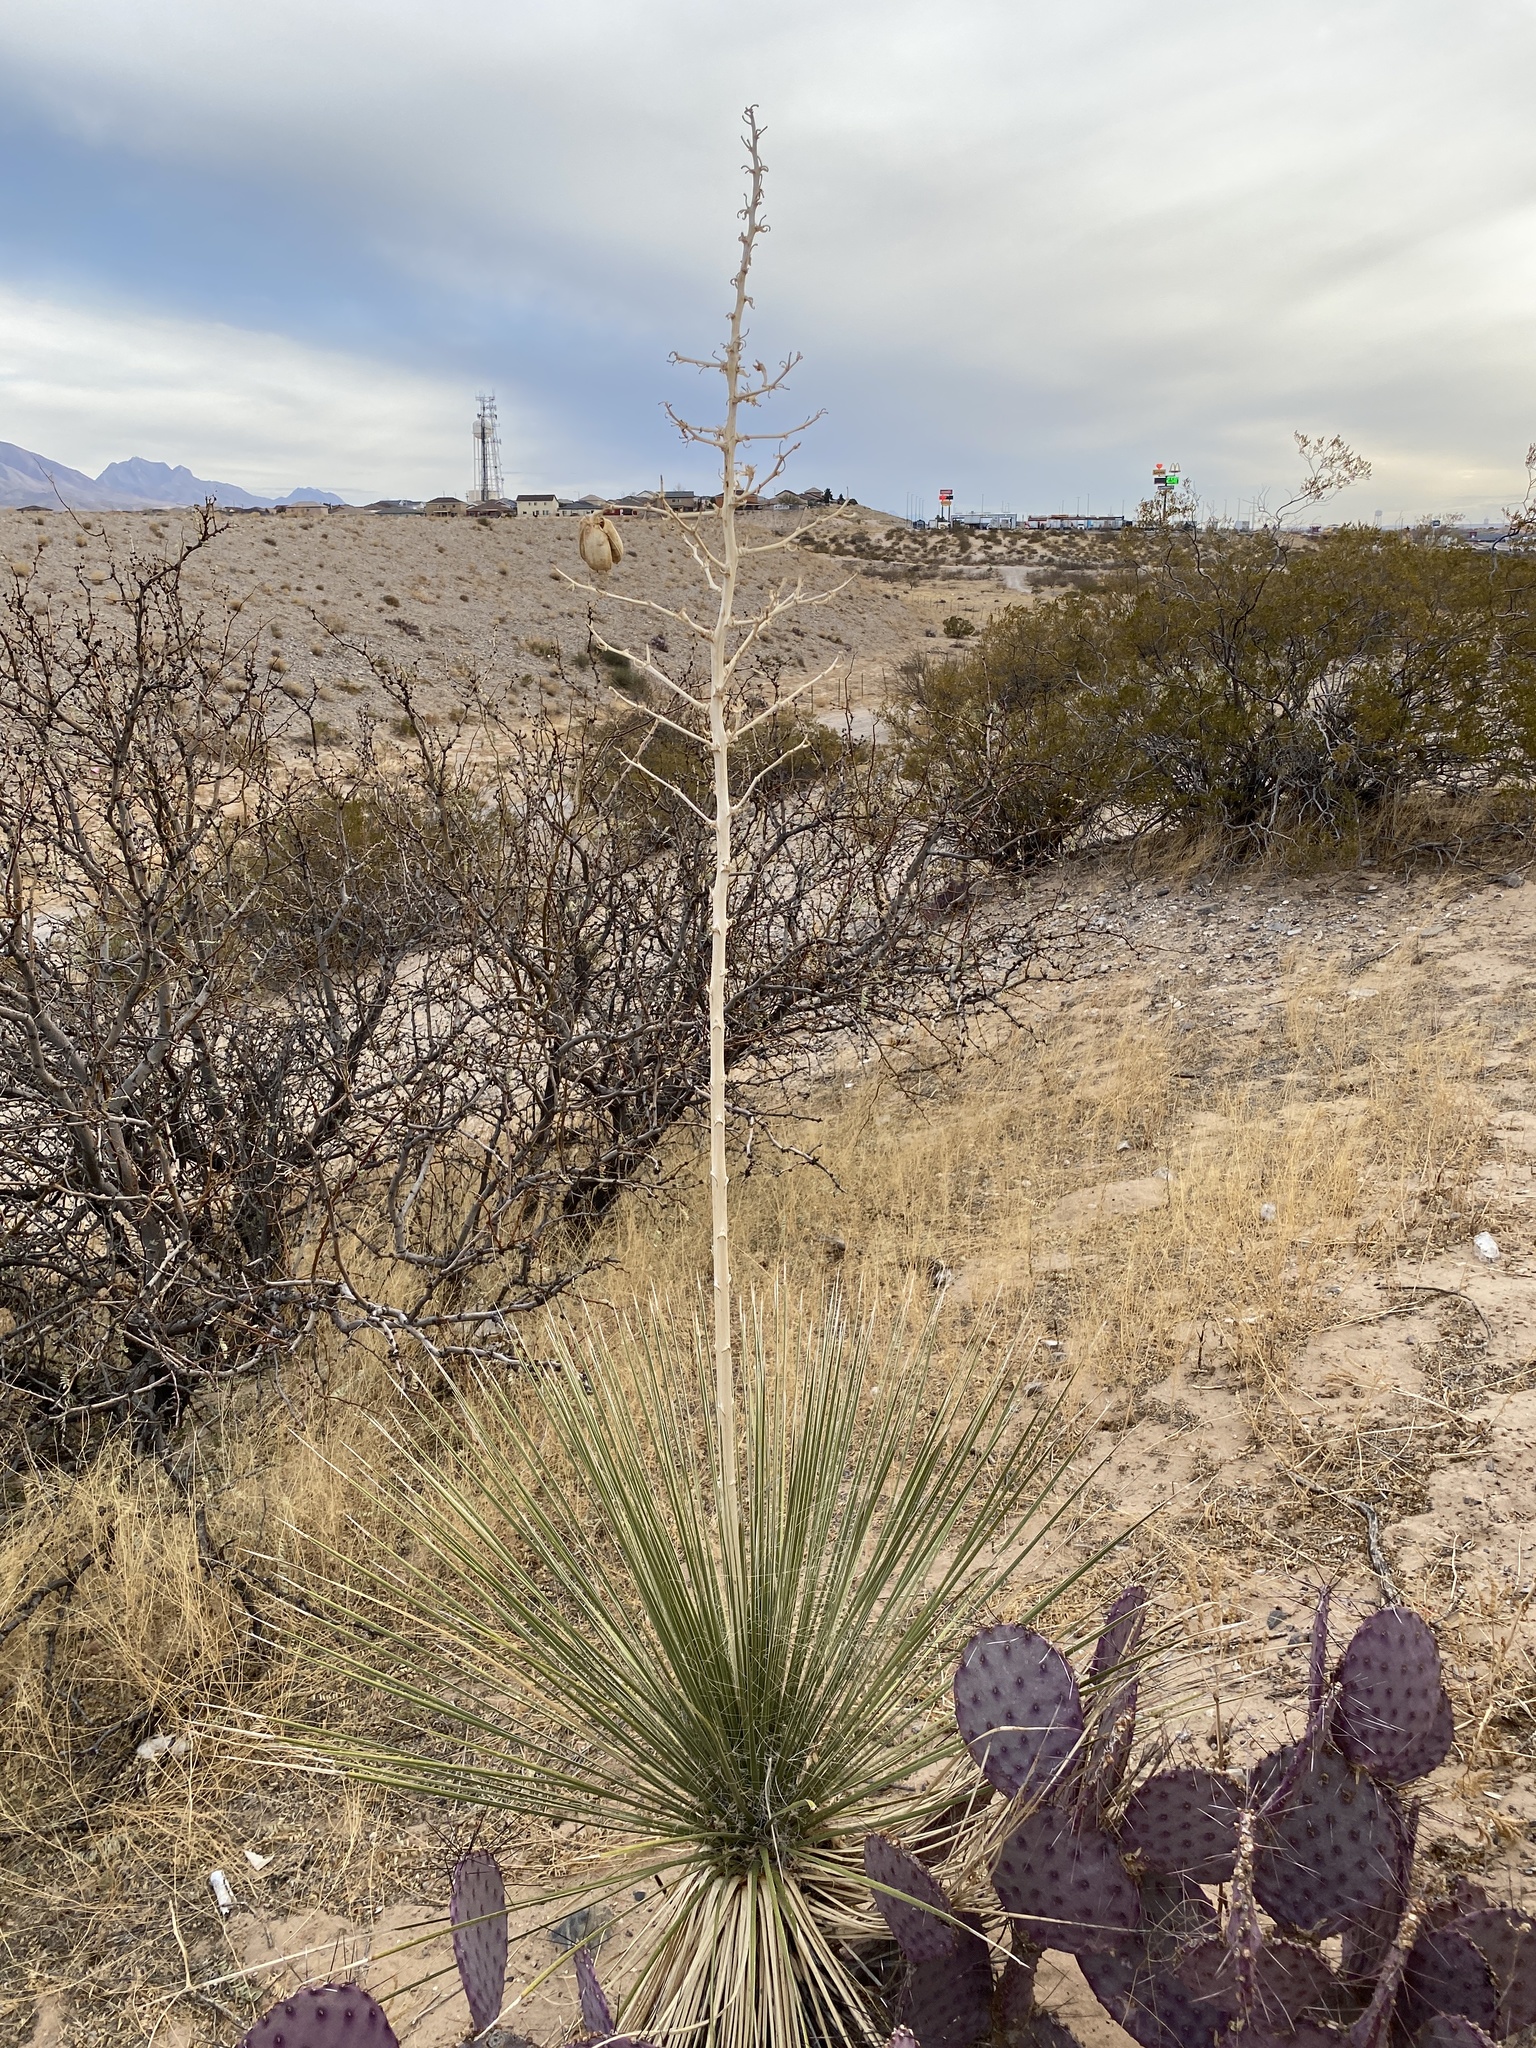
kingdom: Plantae
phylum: Tracheophyta
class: Liliopsida
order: Asparagales
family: Asparagaceae
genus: Yucca
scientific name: Yucca elata
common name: Palmella
